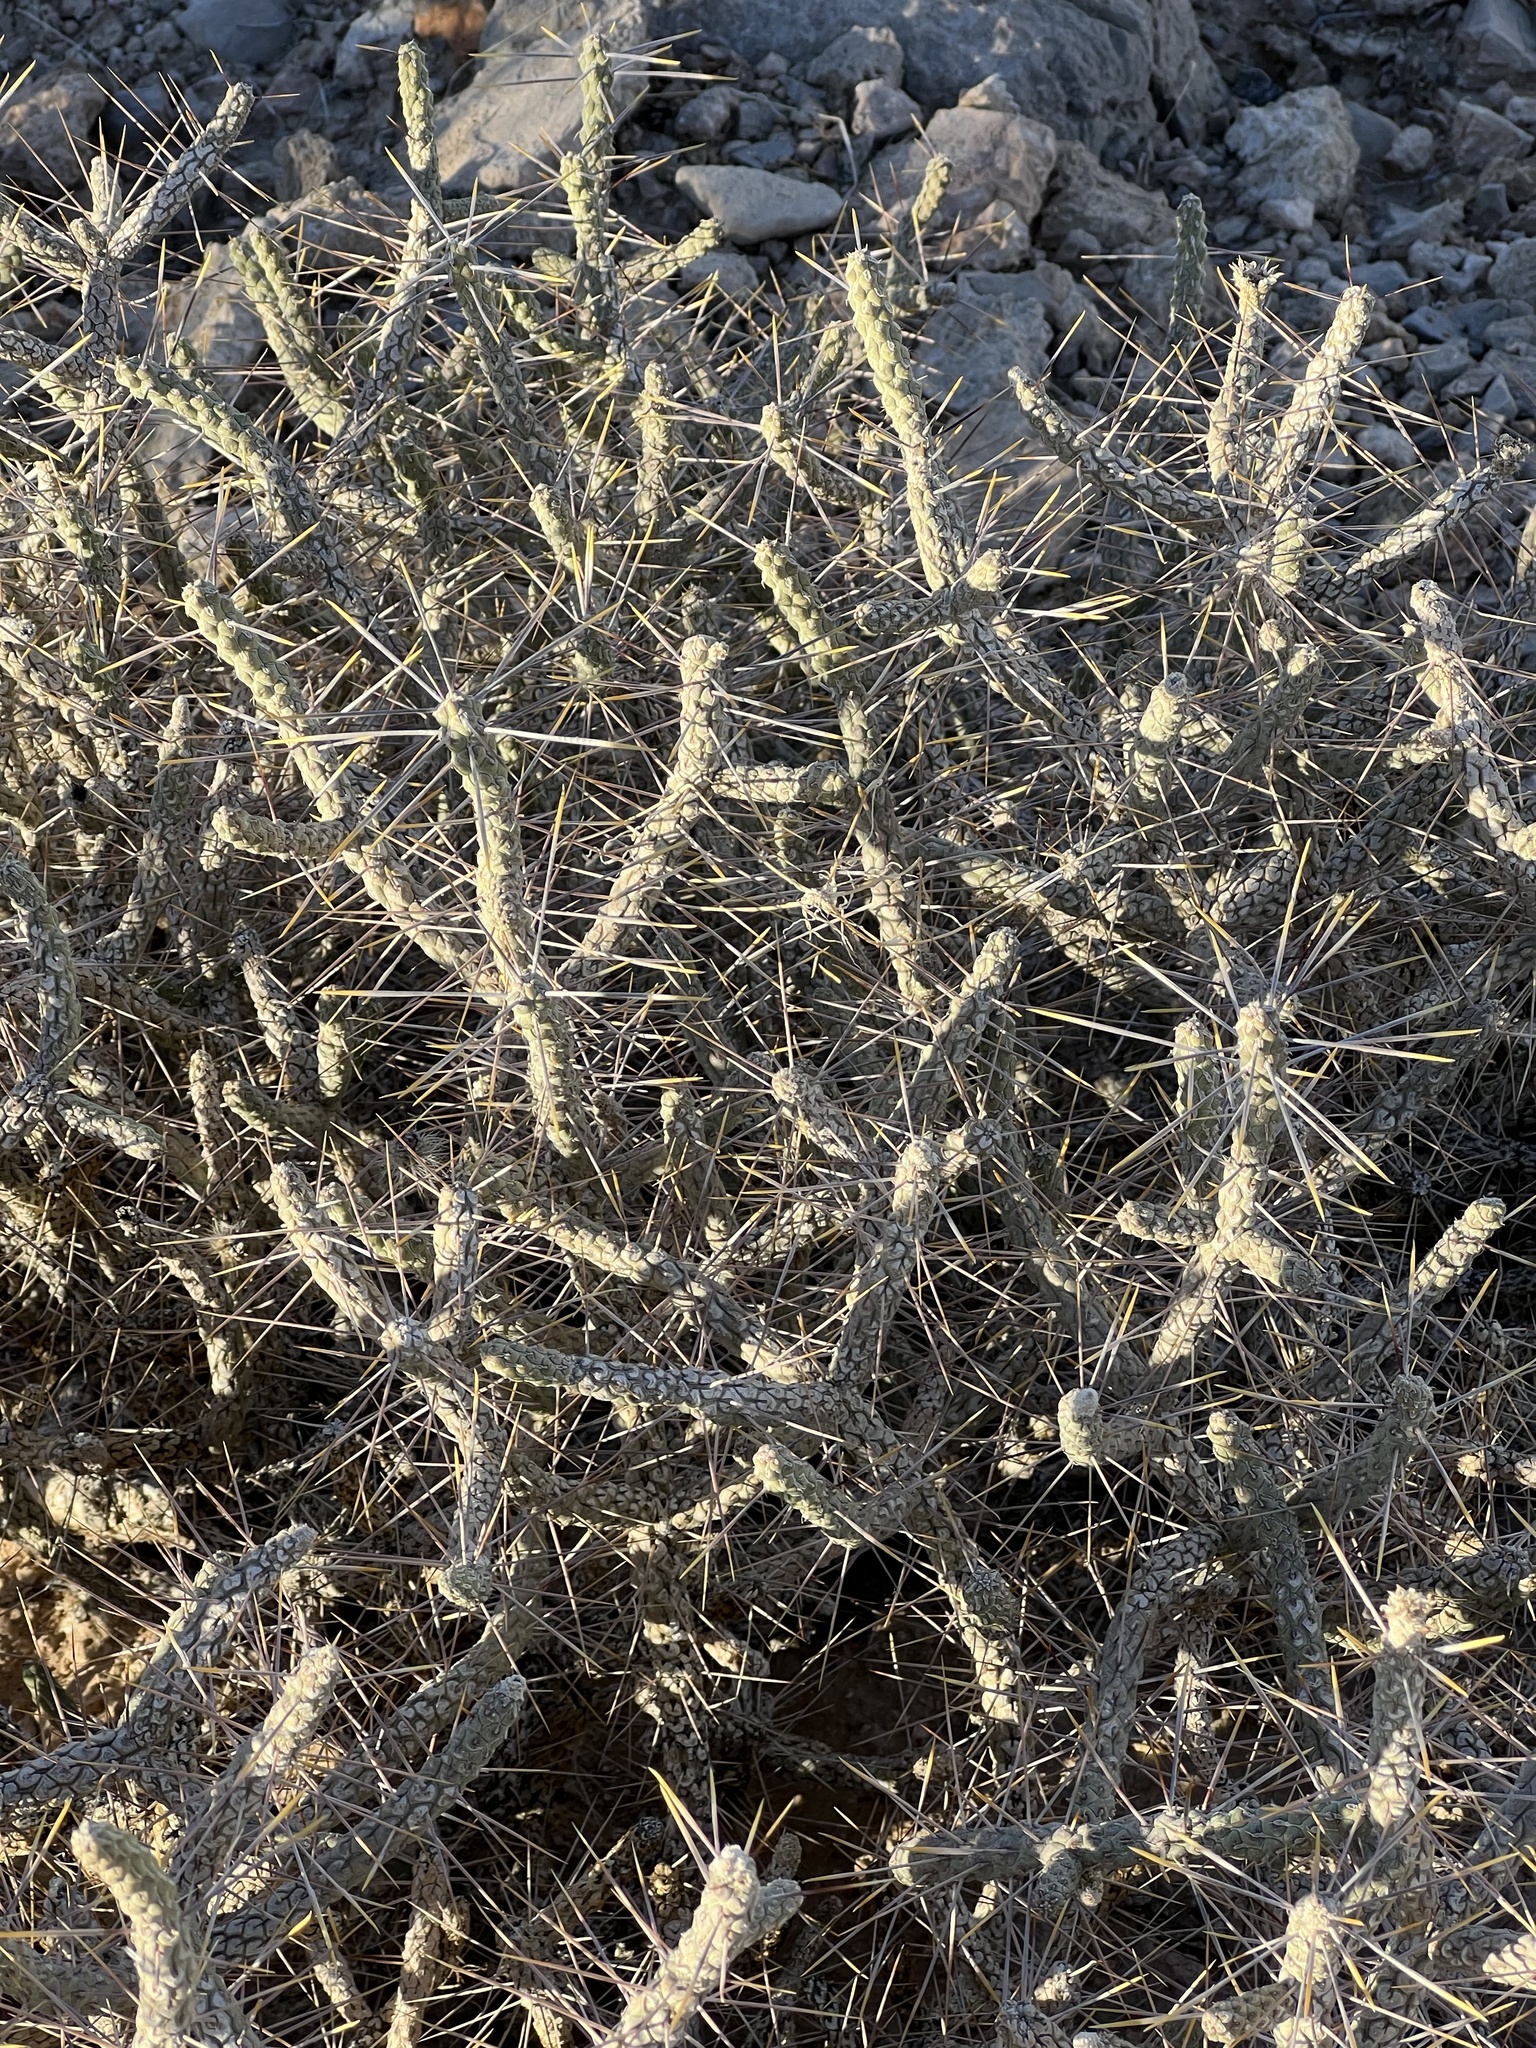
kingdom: Plantae
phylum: Tracheophyta
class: Magnoliopsida
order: Caryophyllales
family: Cactaceae
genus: Cylindropuntia
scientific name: Cylindropuntia ramosissima
